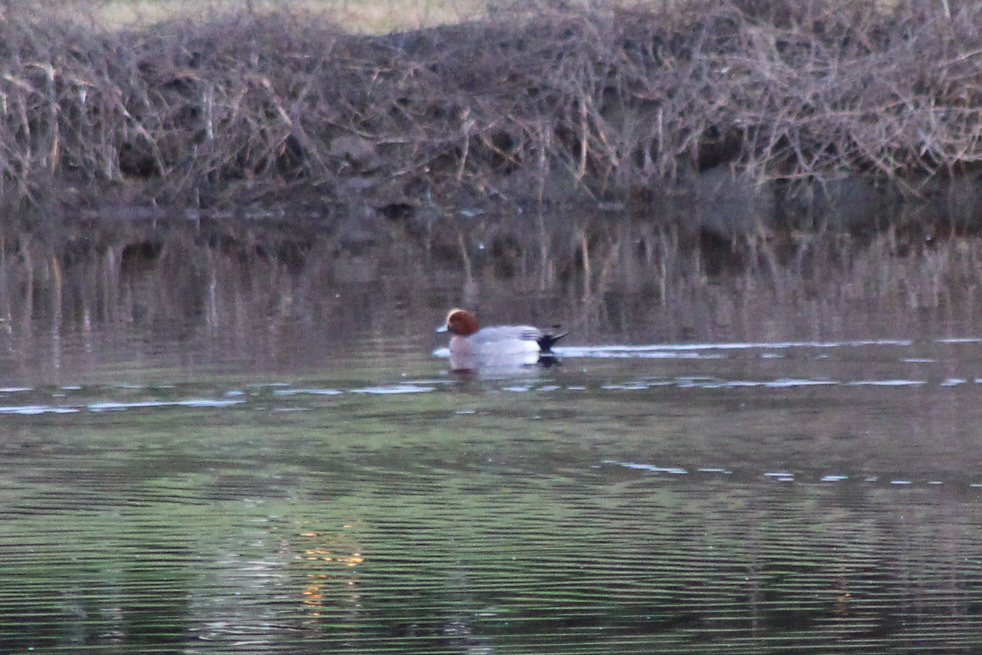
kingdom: Animalia
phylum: Chordata
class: Aves
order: Anseriformes
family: Anatidae
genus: Mareca
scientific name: Mareca penelope
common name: Eurasian wigeon
